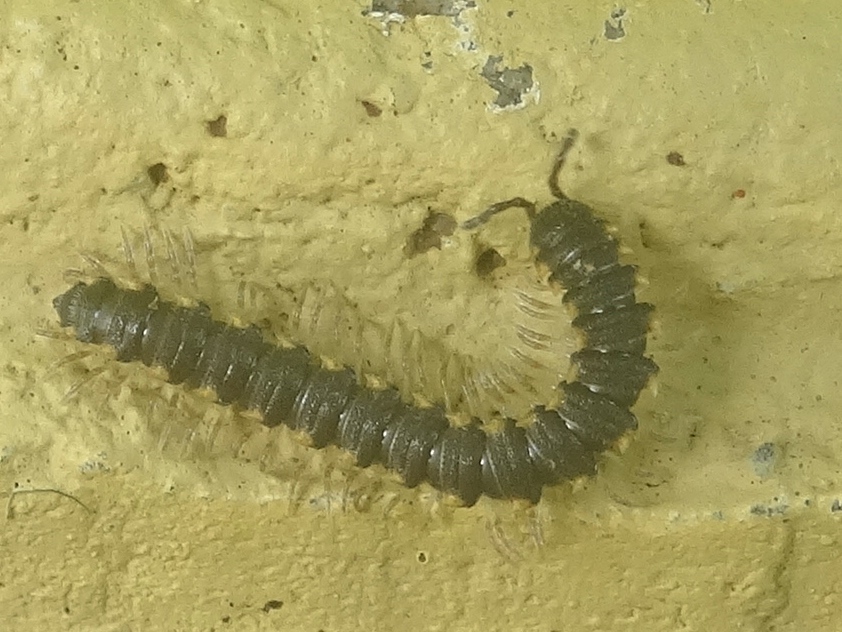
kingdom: Animalia
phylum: Arthropoda
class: Diplopoda
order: Polydesmida
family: Paradoxosomatidae
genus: Chondromorpha
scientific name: Chondromorpha xanthotricha
